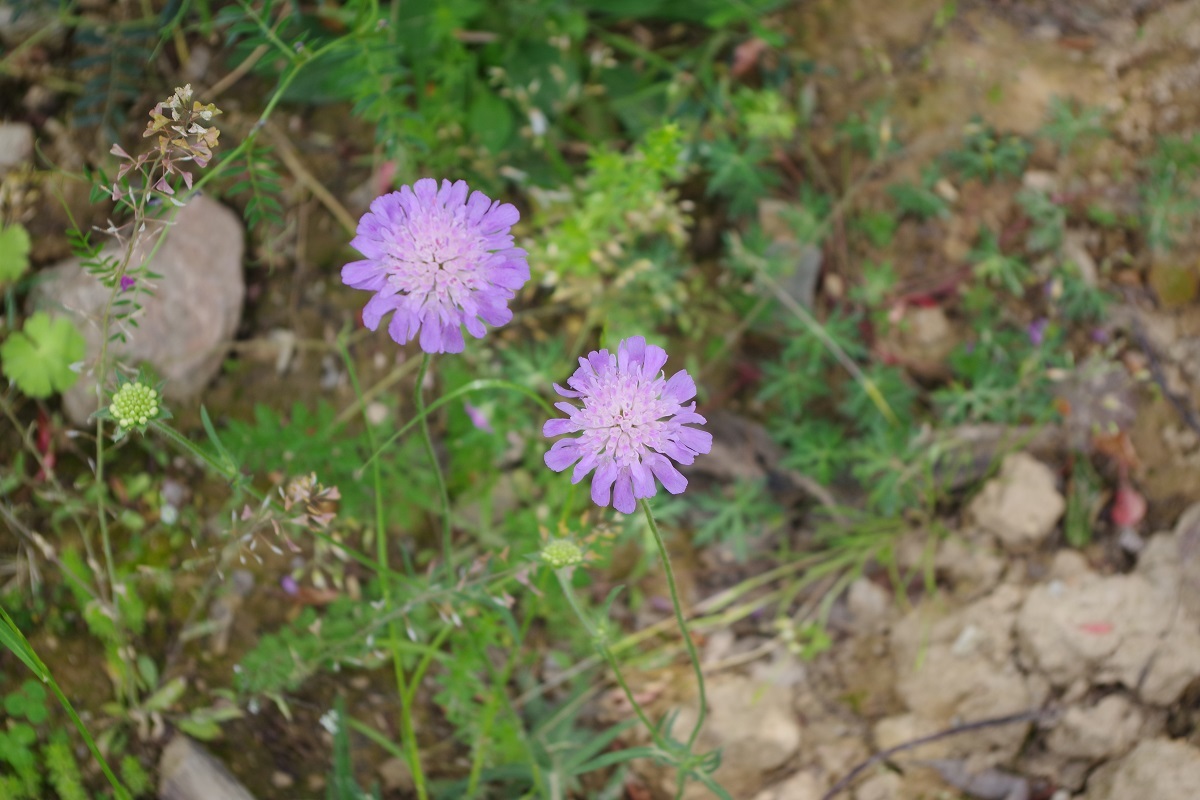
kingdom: Plantae
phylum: Tracheophyta
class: Magnoliopsida
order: Dipsacales
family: Caprifoliaceae
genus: Knautia
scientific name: Knautia arvensis
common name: Field scabiosa
